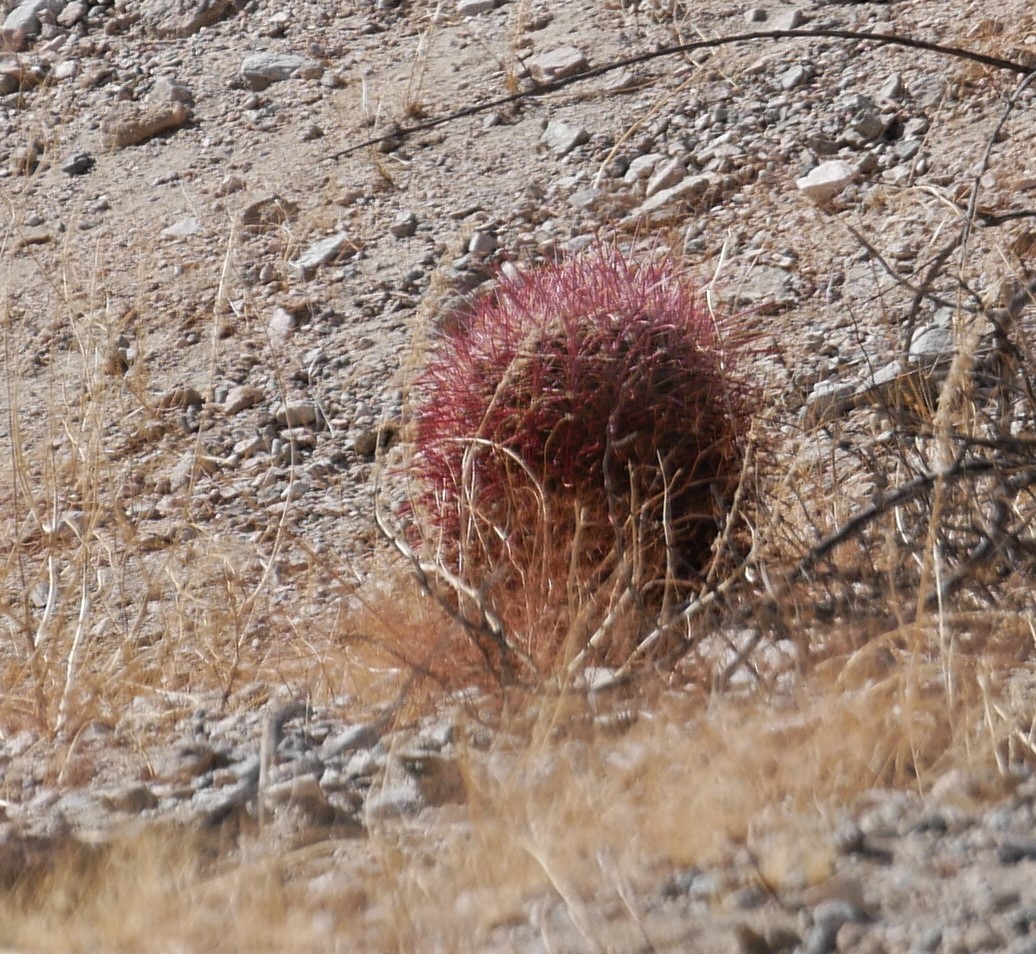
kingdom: Plantae
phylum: Tracheophyta
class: Magnoliopsida
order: Caryophyllales
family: Cactaceae
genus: Ferocactus
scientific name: Ferocactus cylindraceus
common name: California barrel cactus
